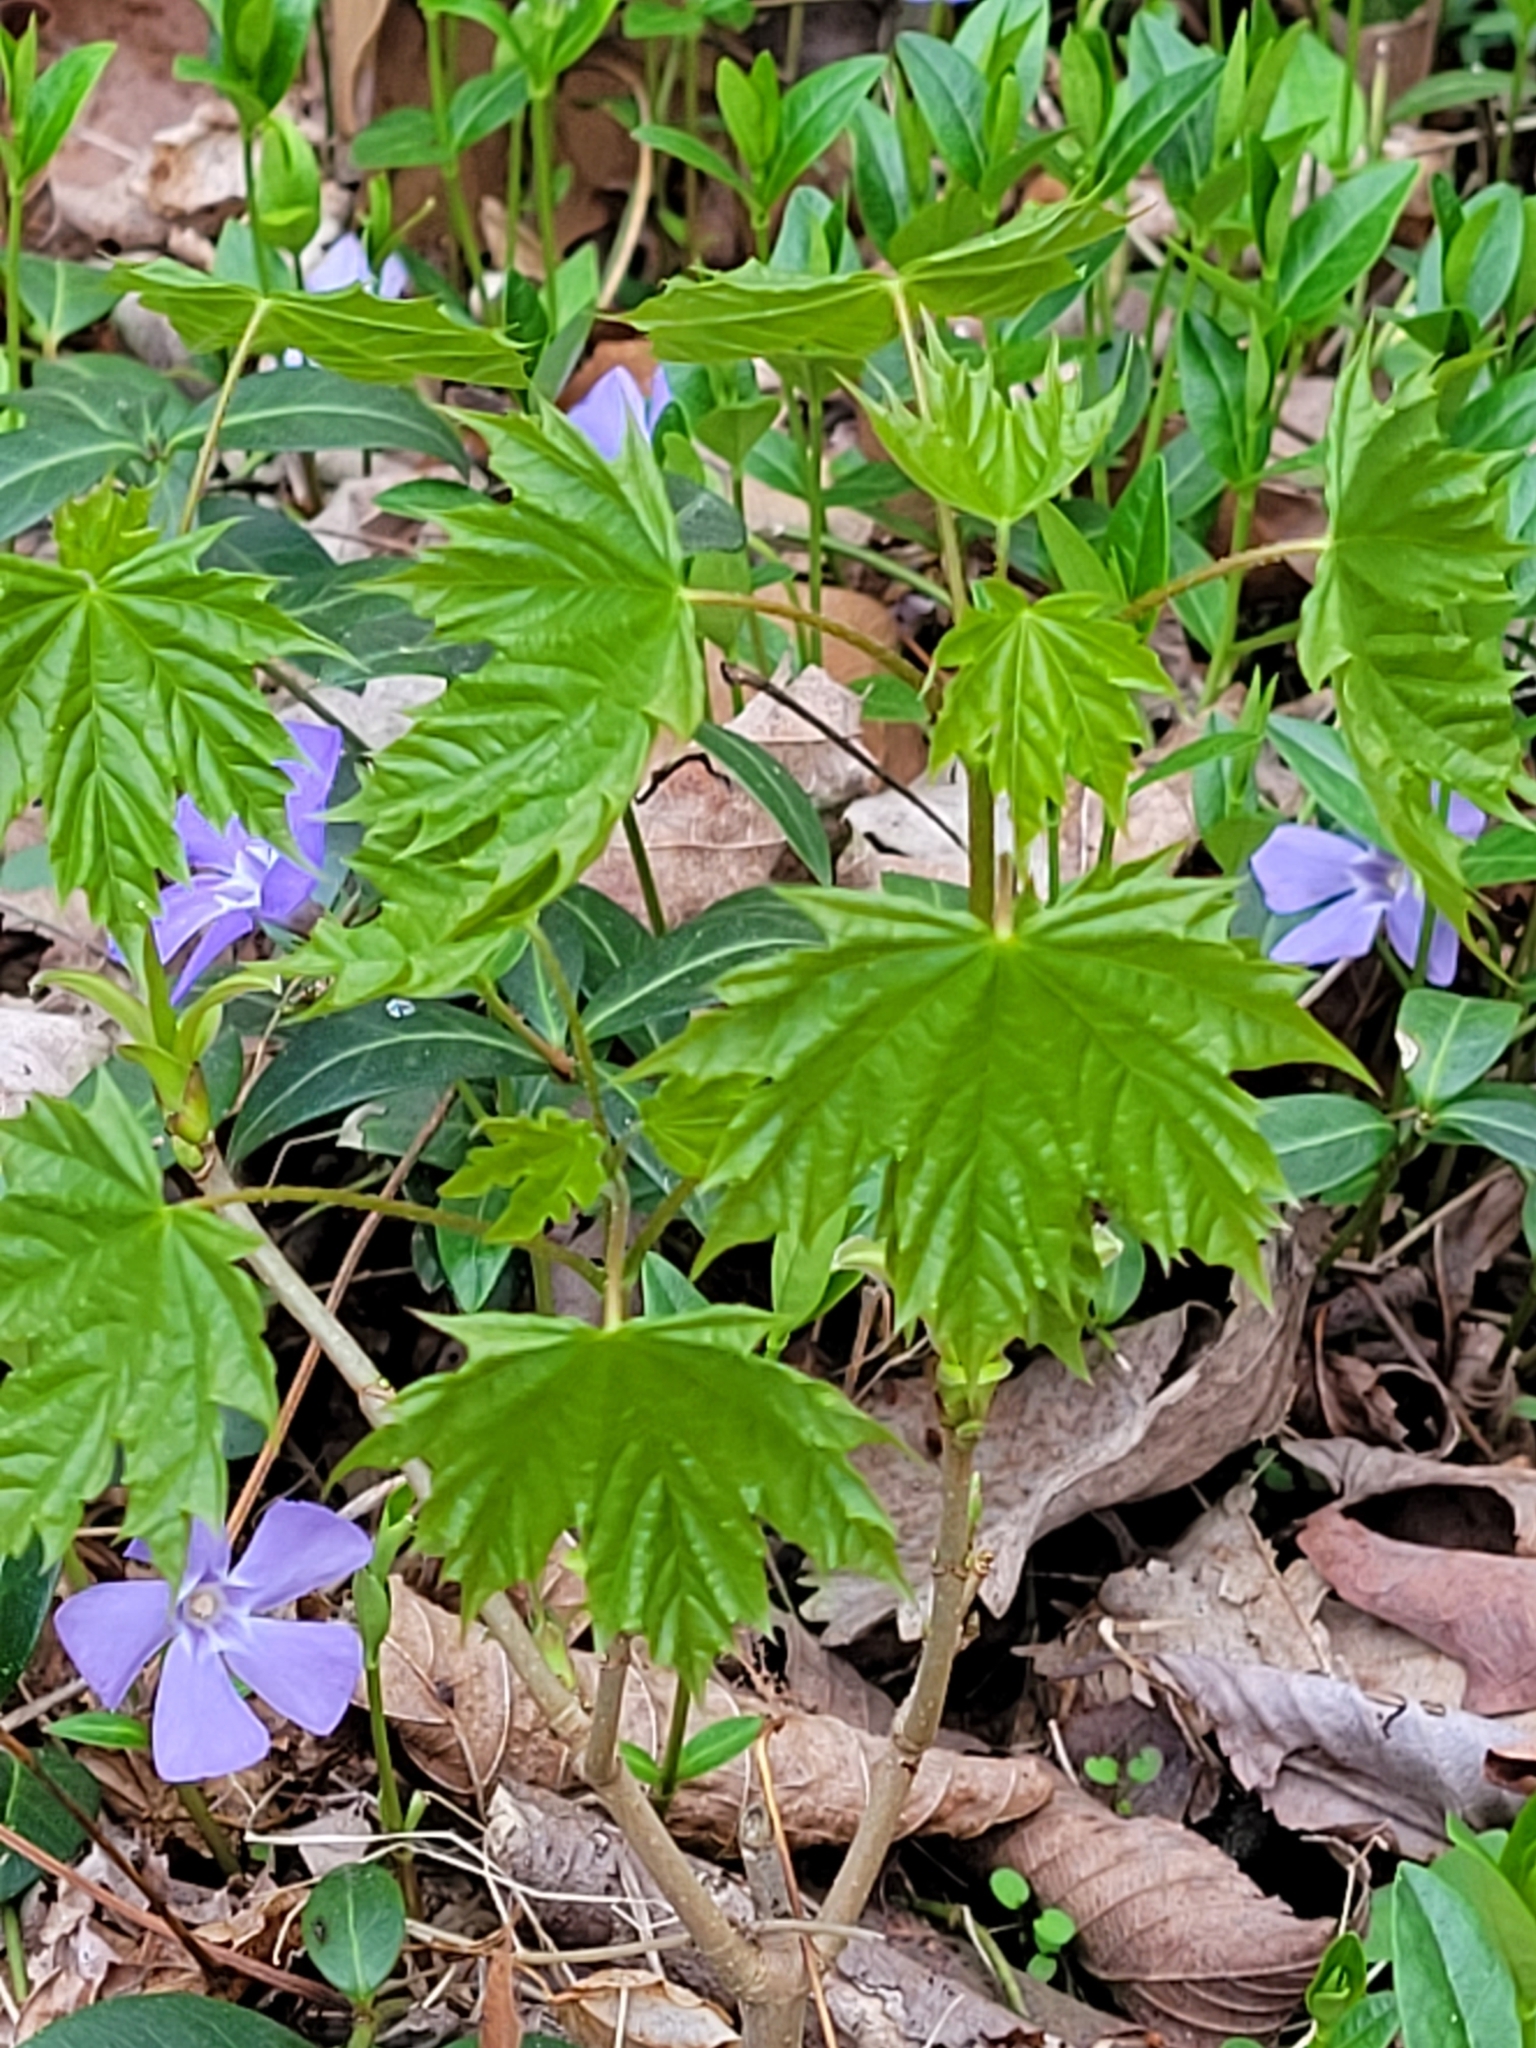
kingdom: Plantae
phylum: Tracheophyta
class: Magnoliopsida
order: Sapindales
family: Sapindaceae
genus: Acer
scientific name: Acer platanoides
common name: Norway maple
